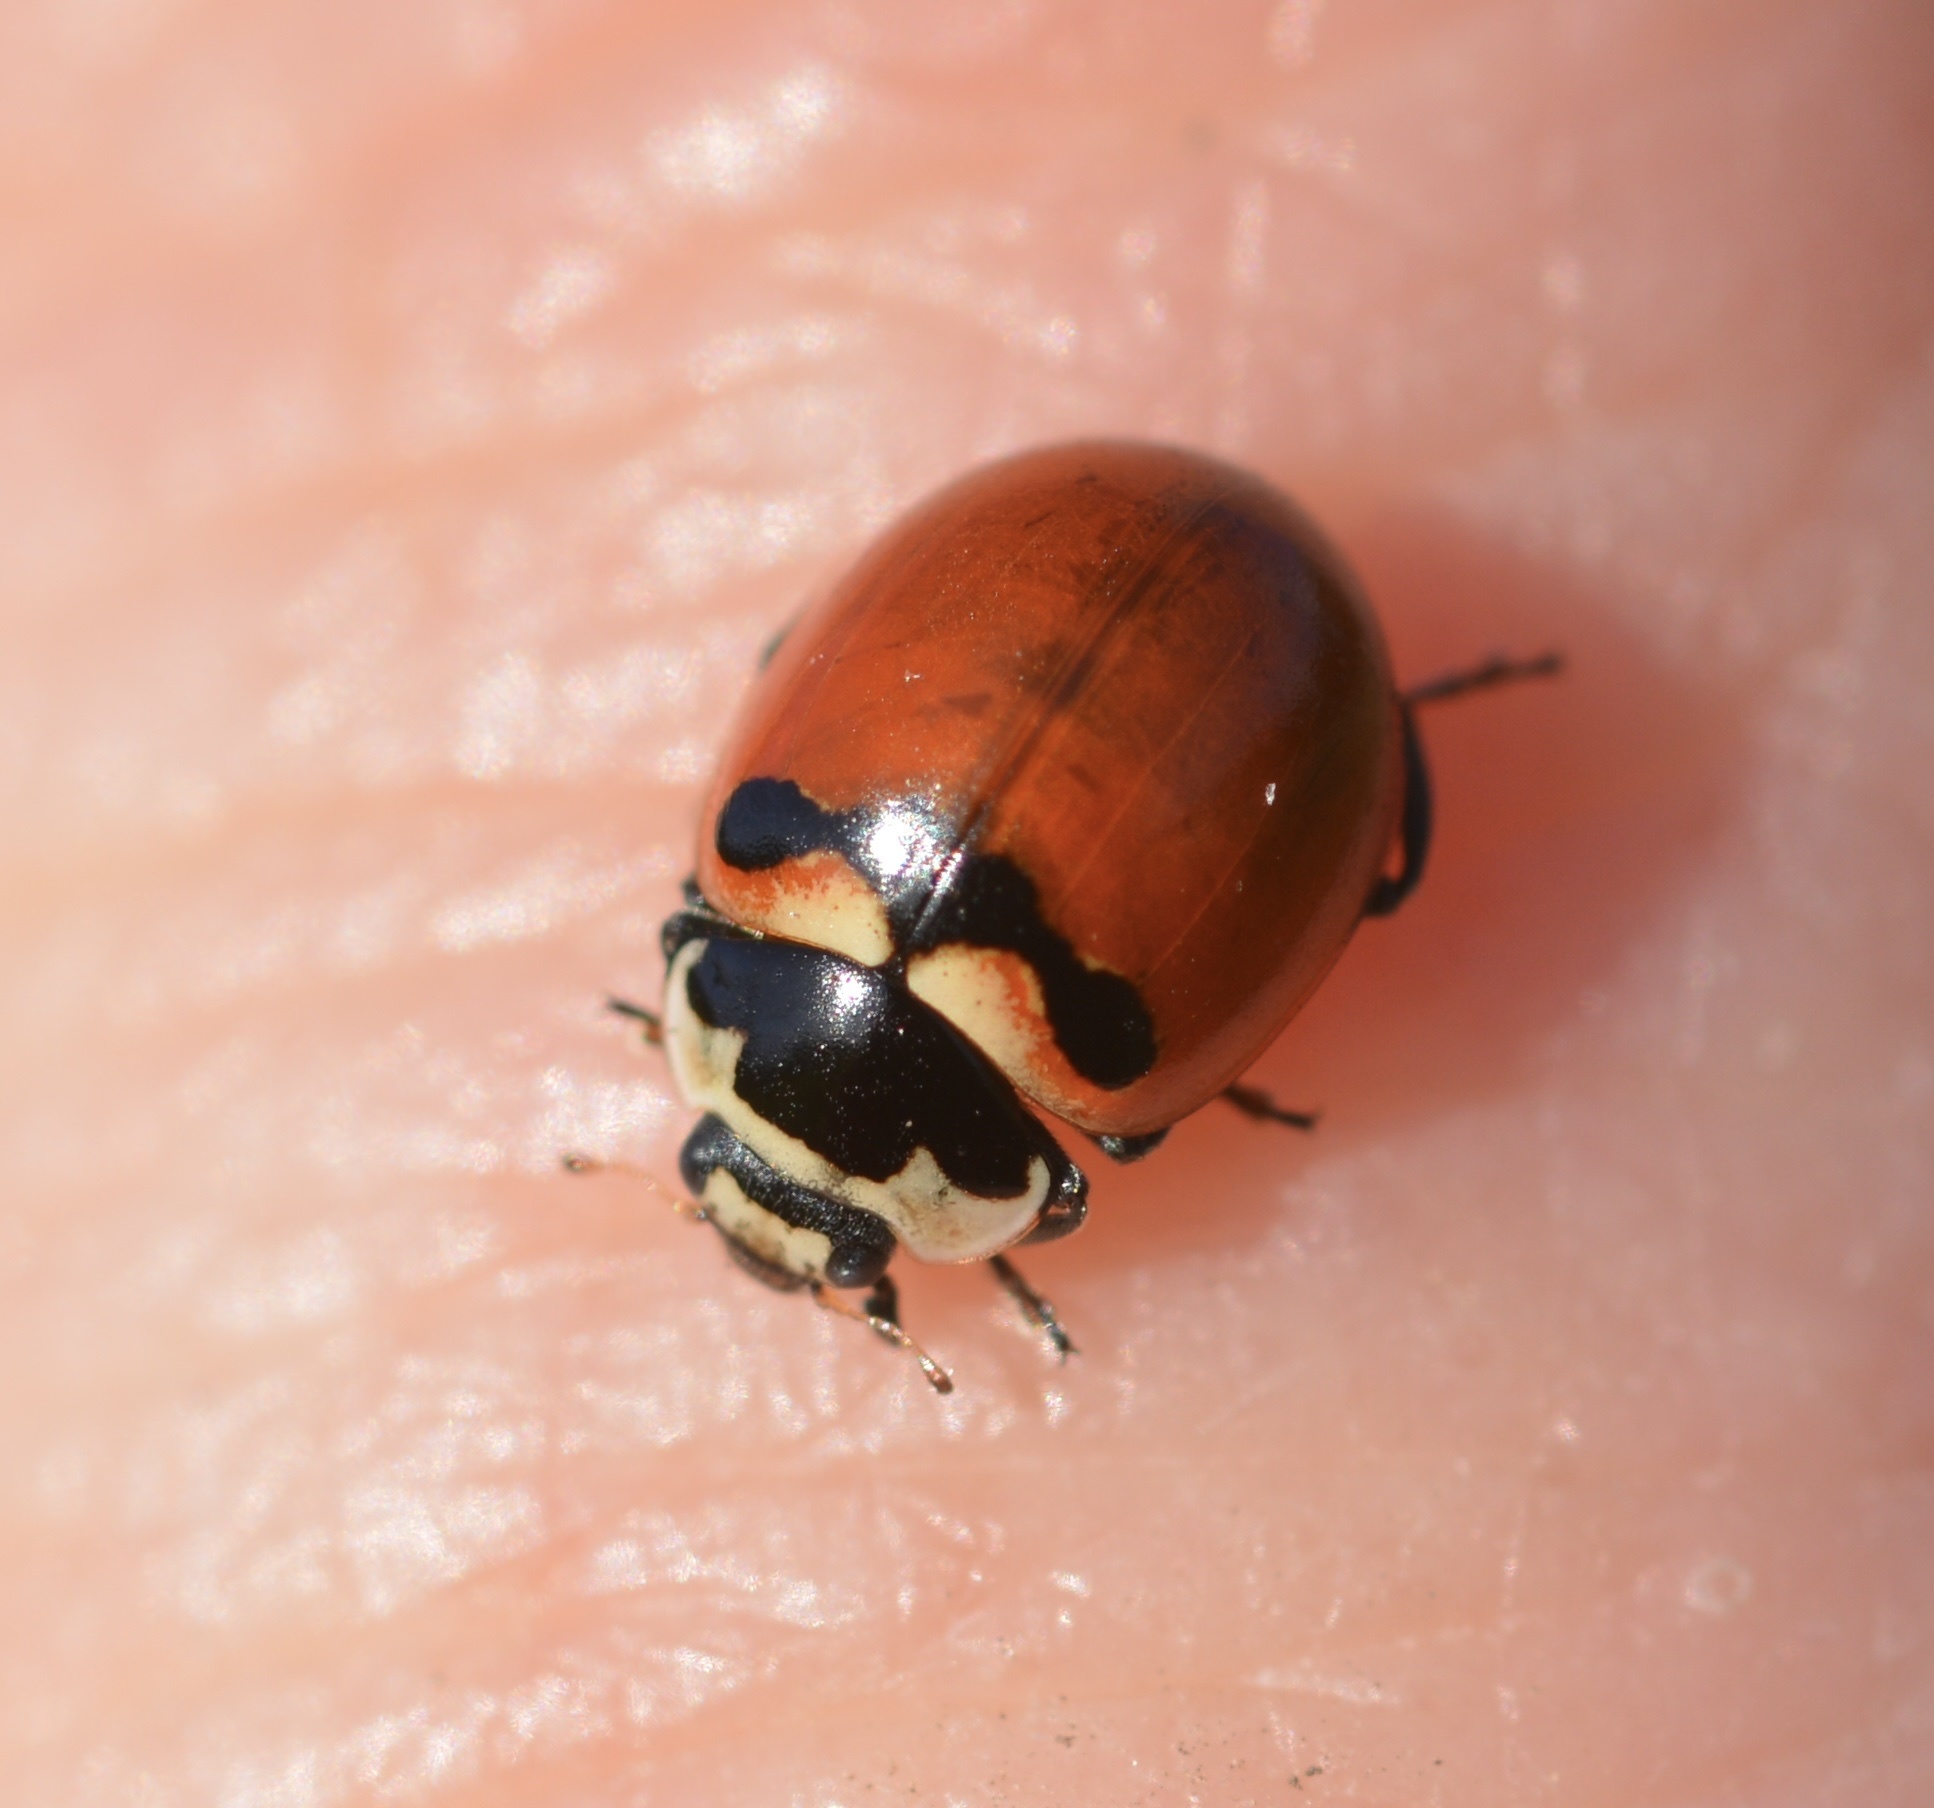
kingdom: Animalia
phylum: Arthropoda
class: Insecta
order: Coleoptera
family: Coccinellidae
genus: Coccinella
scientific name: Coccinella trifasciata
